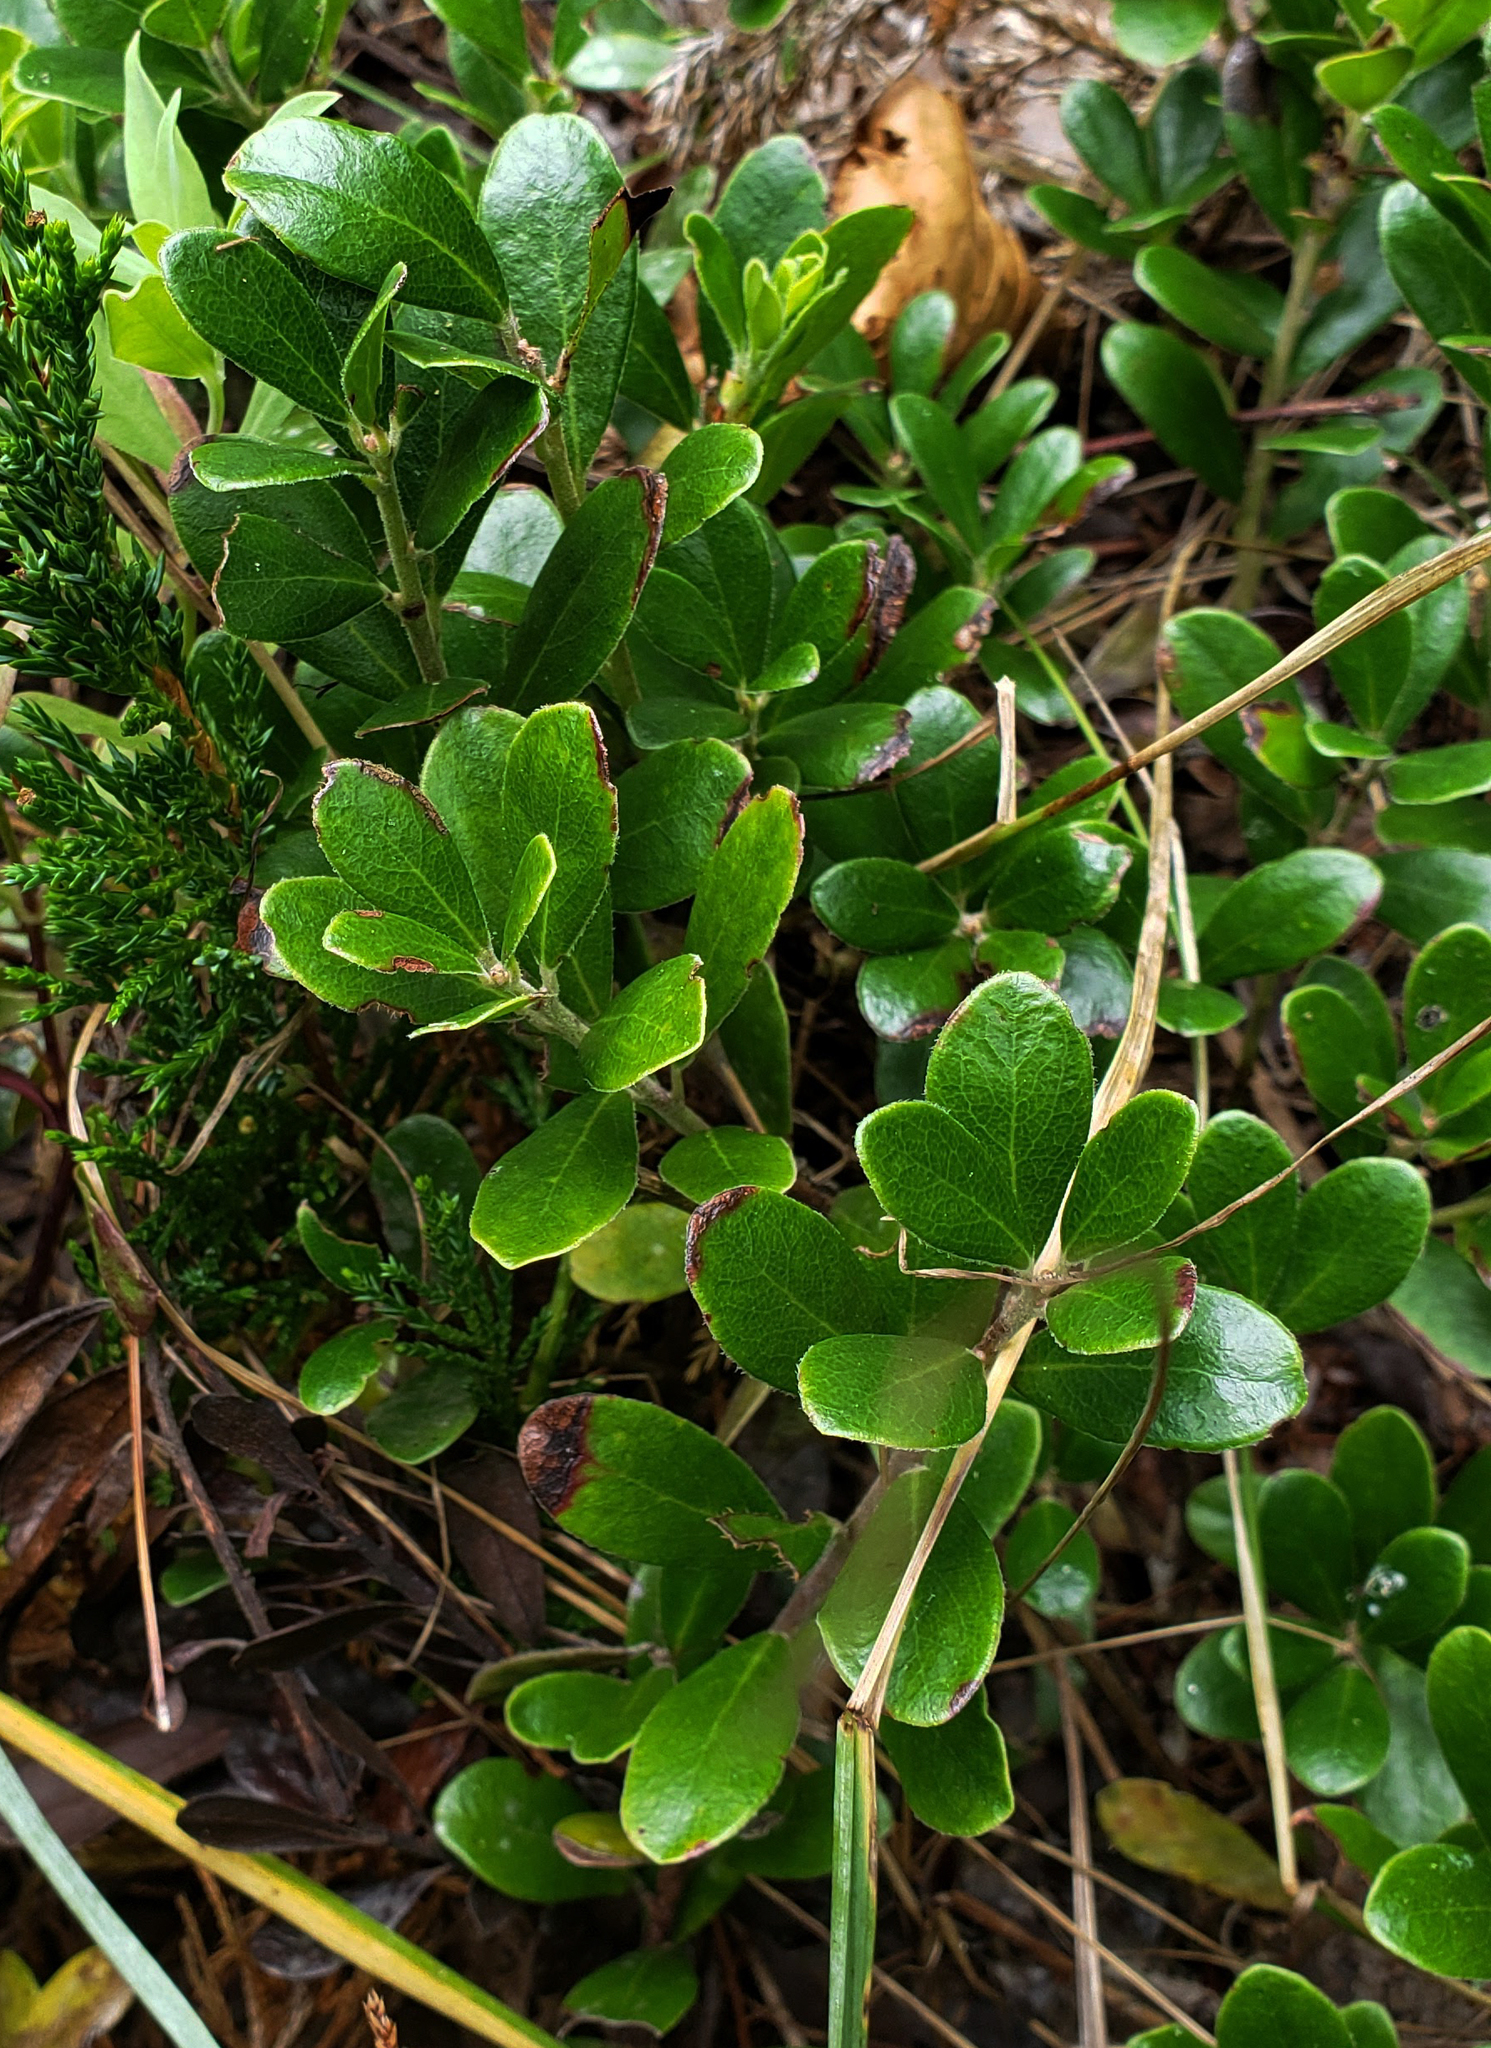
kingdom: Plantae
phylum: Tracheophyta
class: Magnoliopsida
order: Ericales
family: Ericaceae
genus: Arctostaphylos
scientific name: Arctostaphylos uva-ursi
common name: Bearberry
